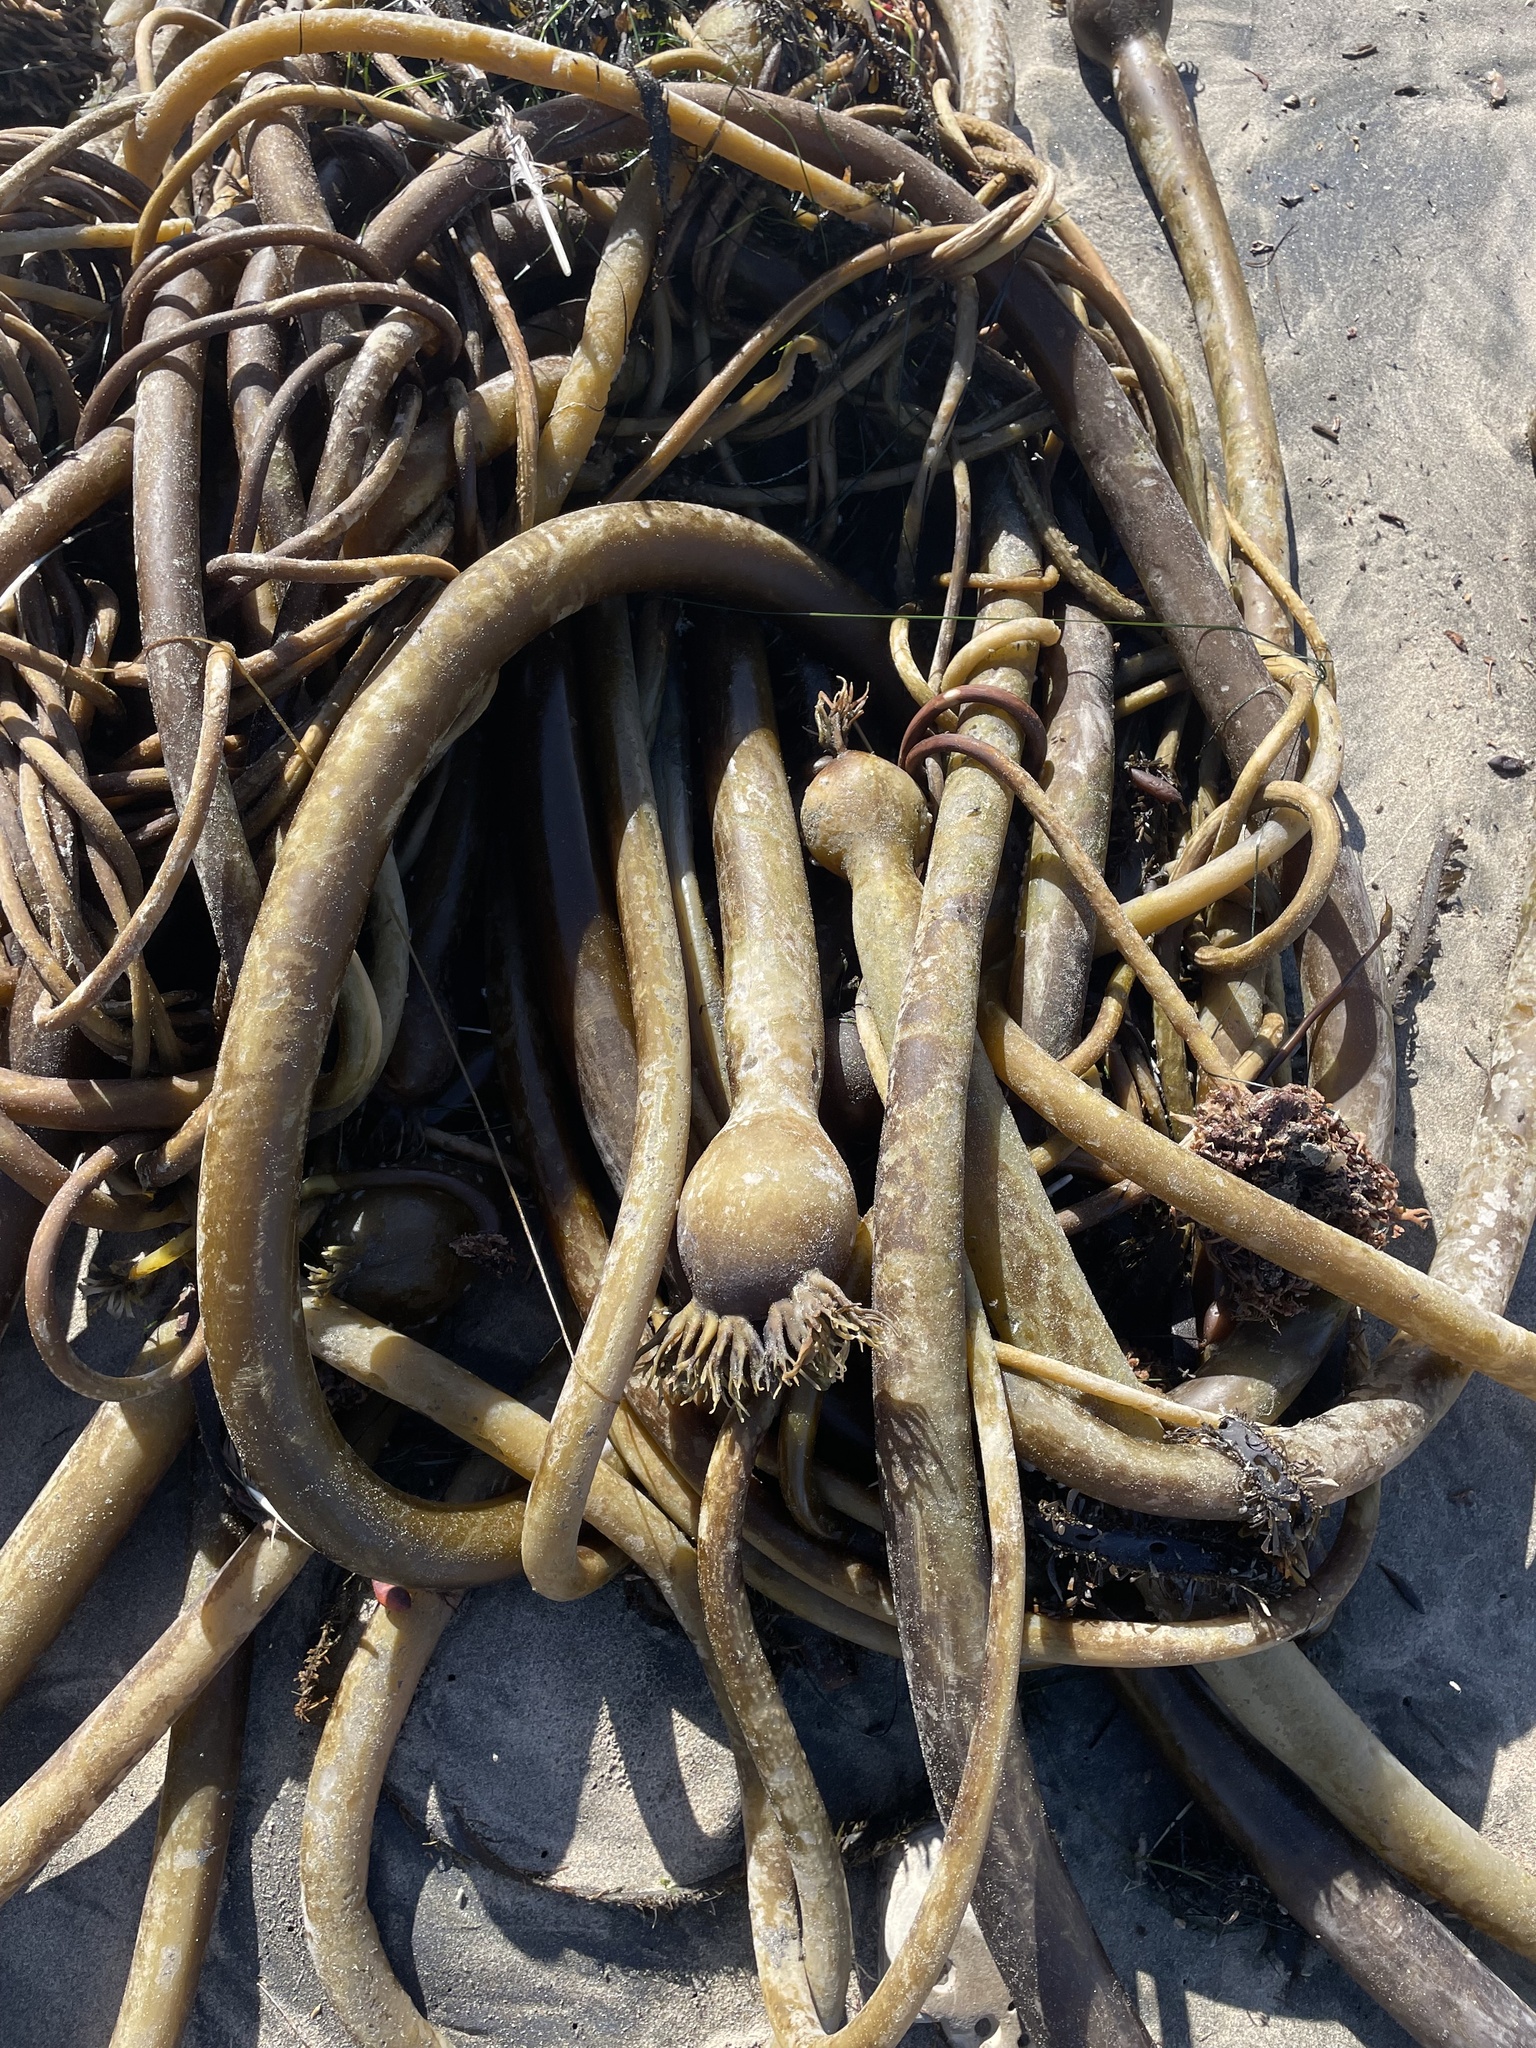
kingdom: Chromista
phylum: Ochrophyta
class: Phaeophyceae
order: Laminariales
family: Laminariaceae
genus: Nereocystis
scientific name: Nereocystis luetkeana
